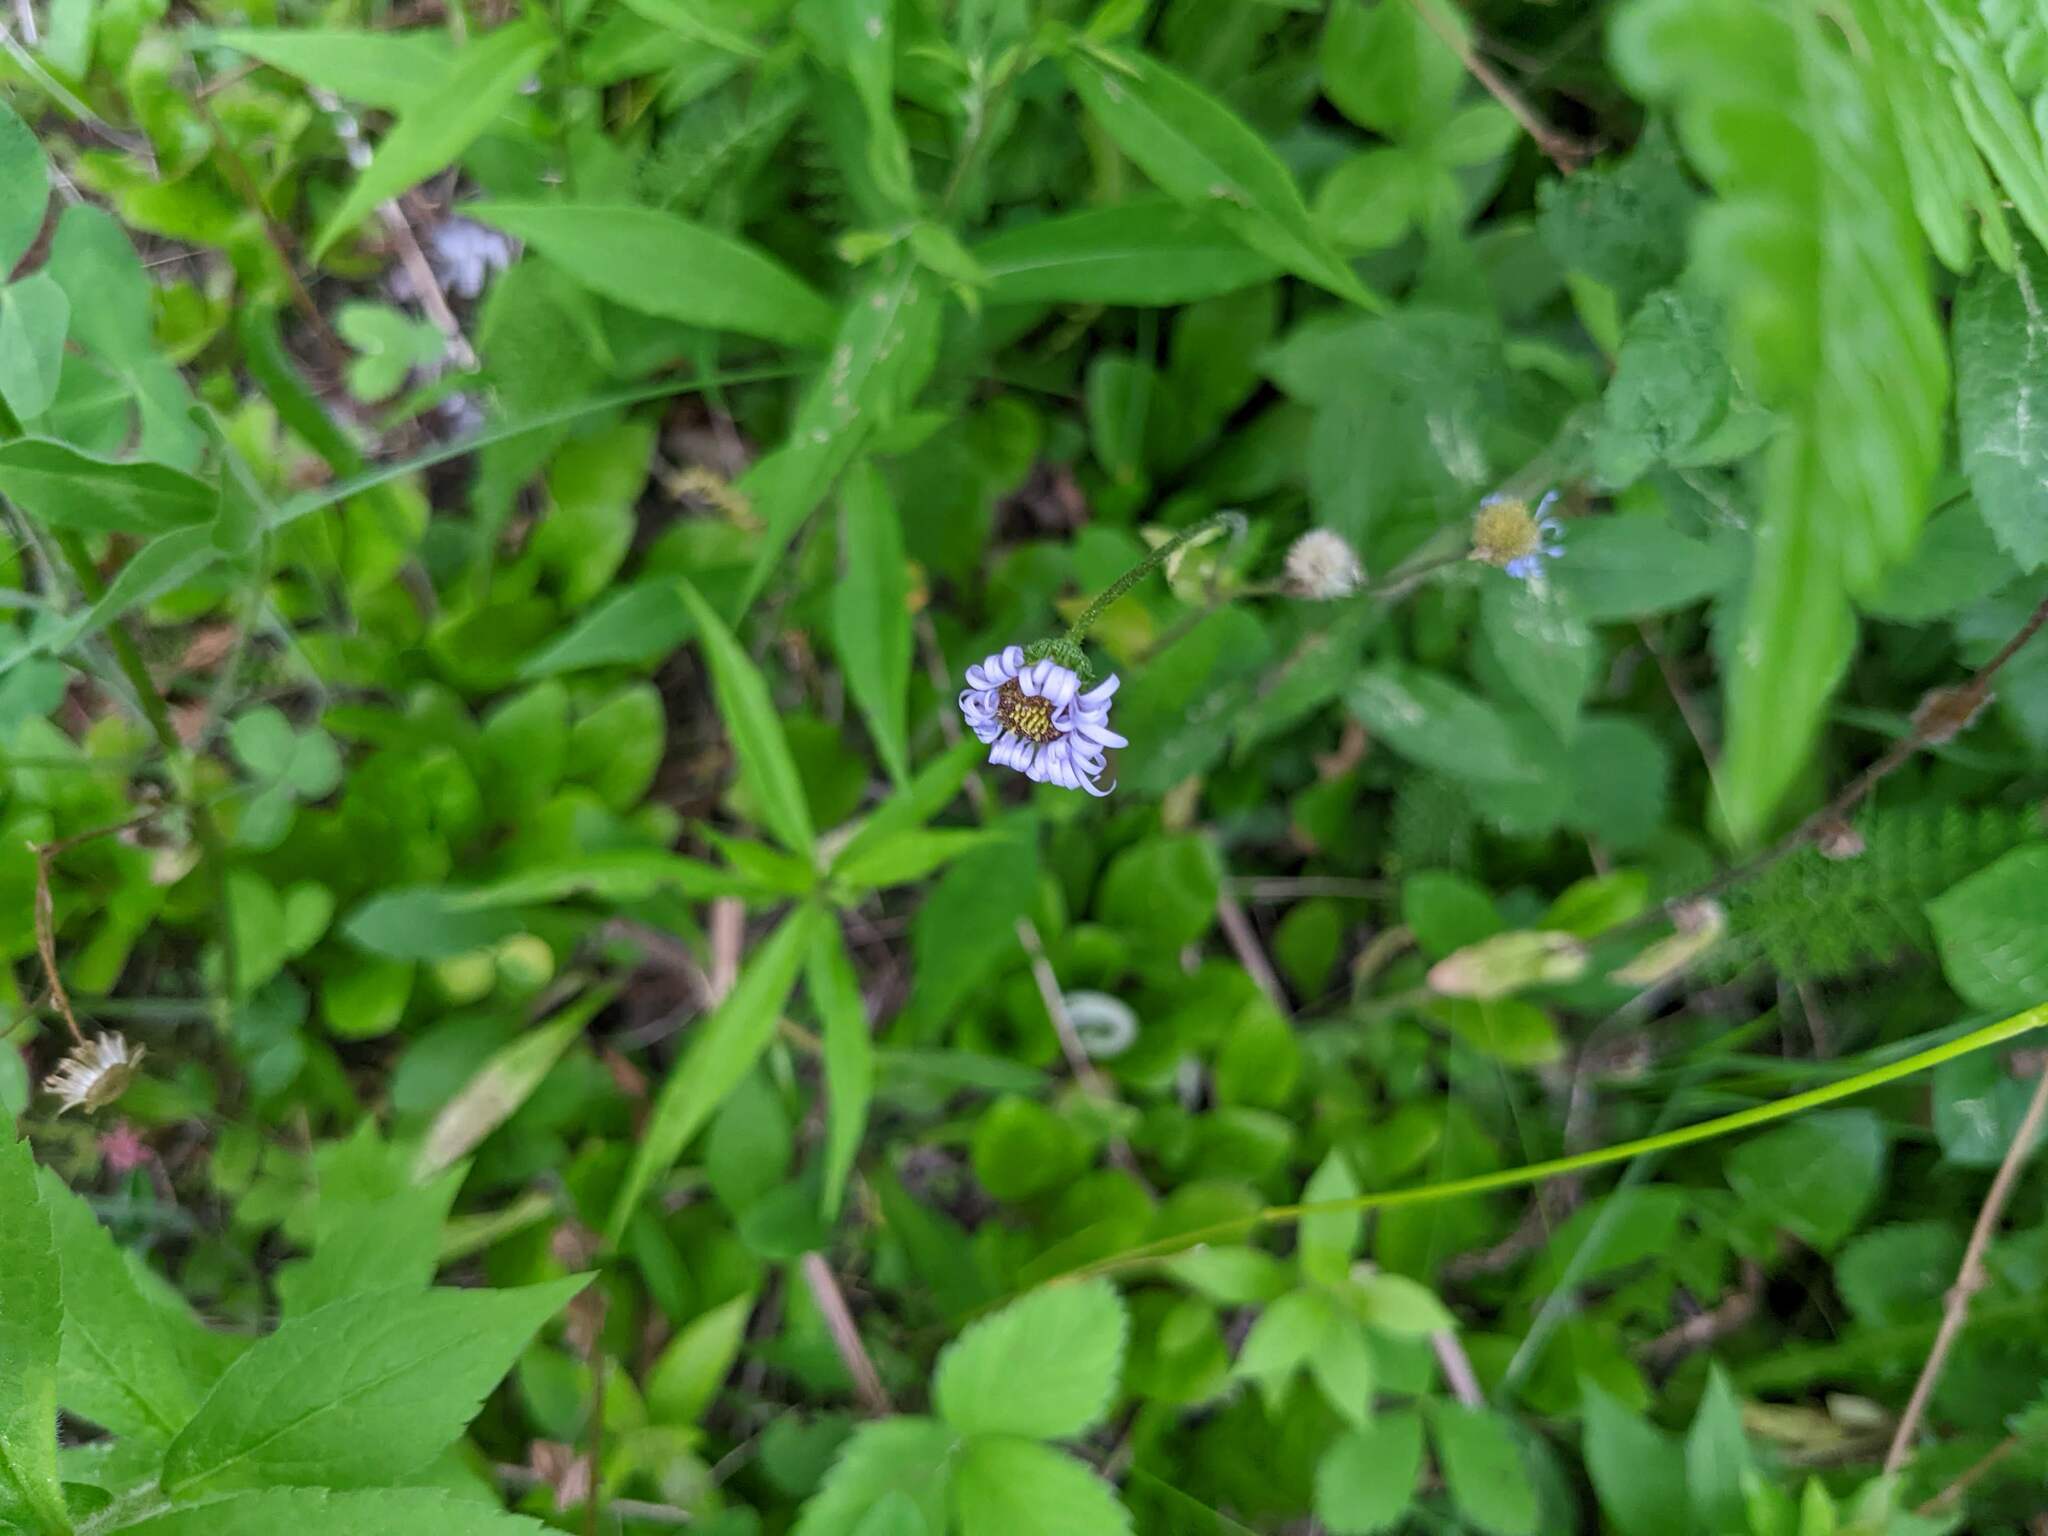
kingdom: Plantae
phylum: Tracheophyta
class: Magnoliopsida
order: Asterales
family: Asteraceae
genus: Erigeron
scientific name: Erigeron pulchellus
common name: Hairy fleabane
